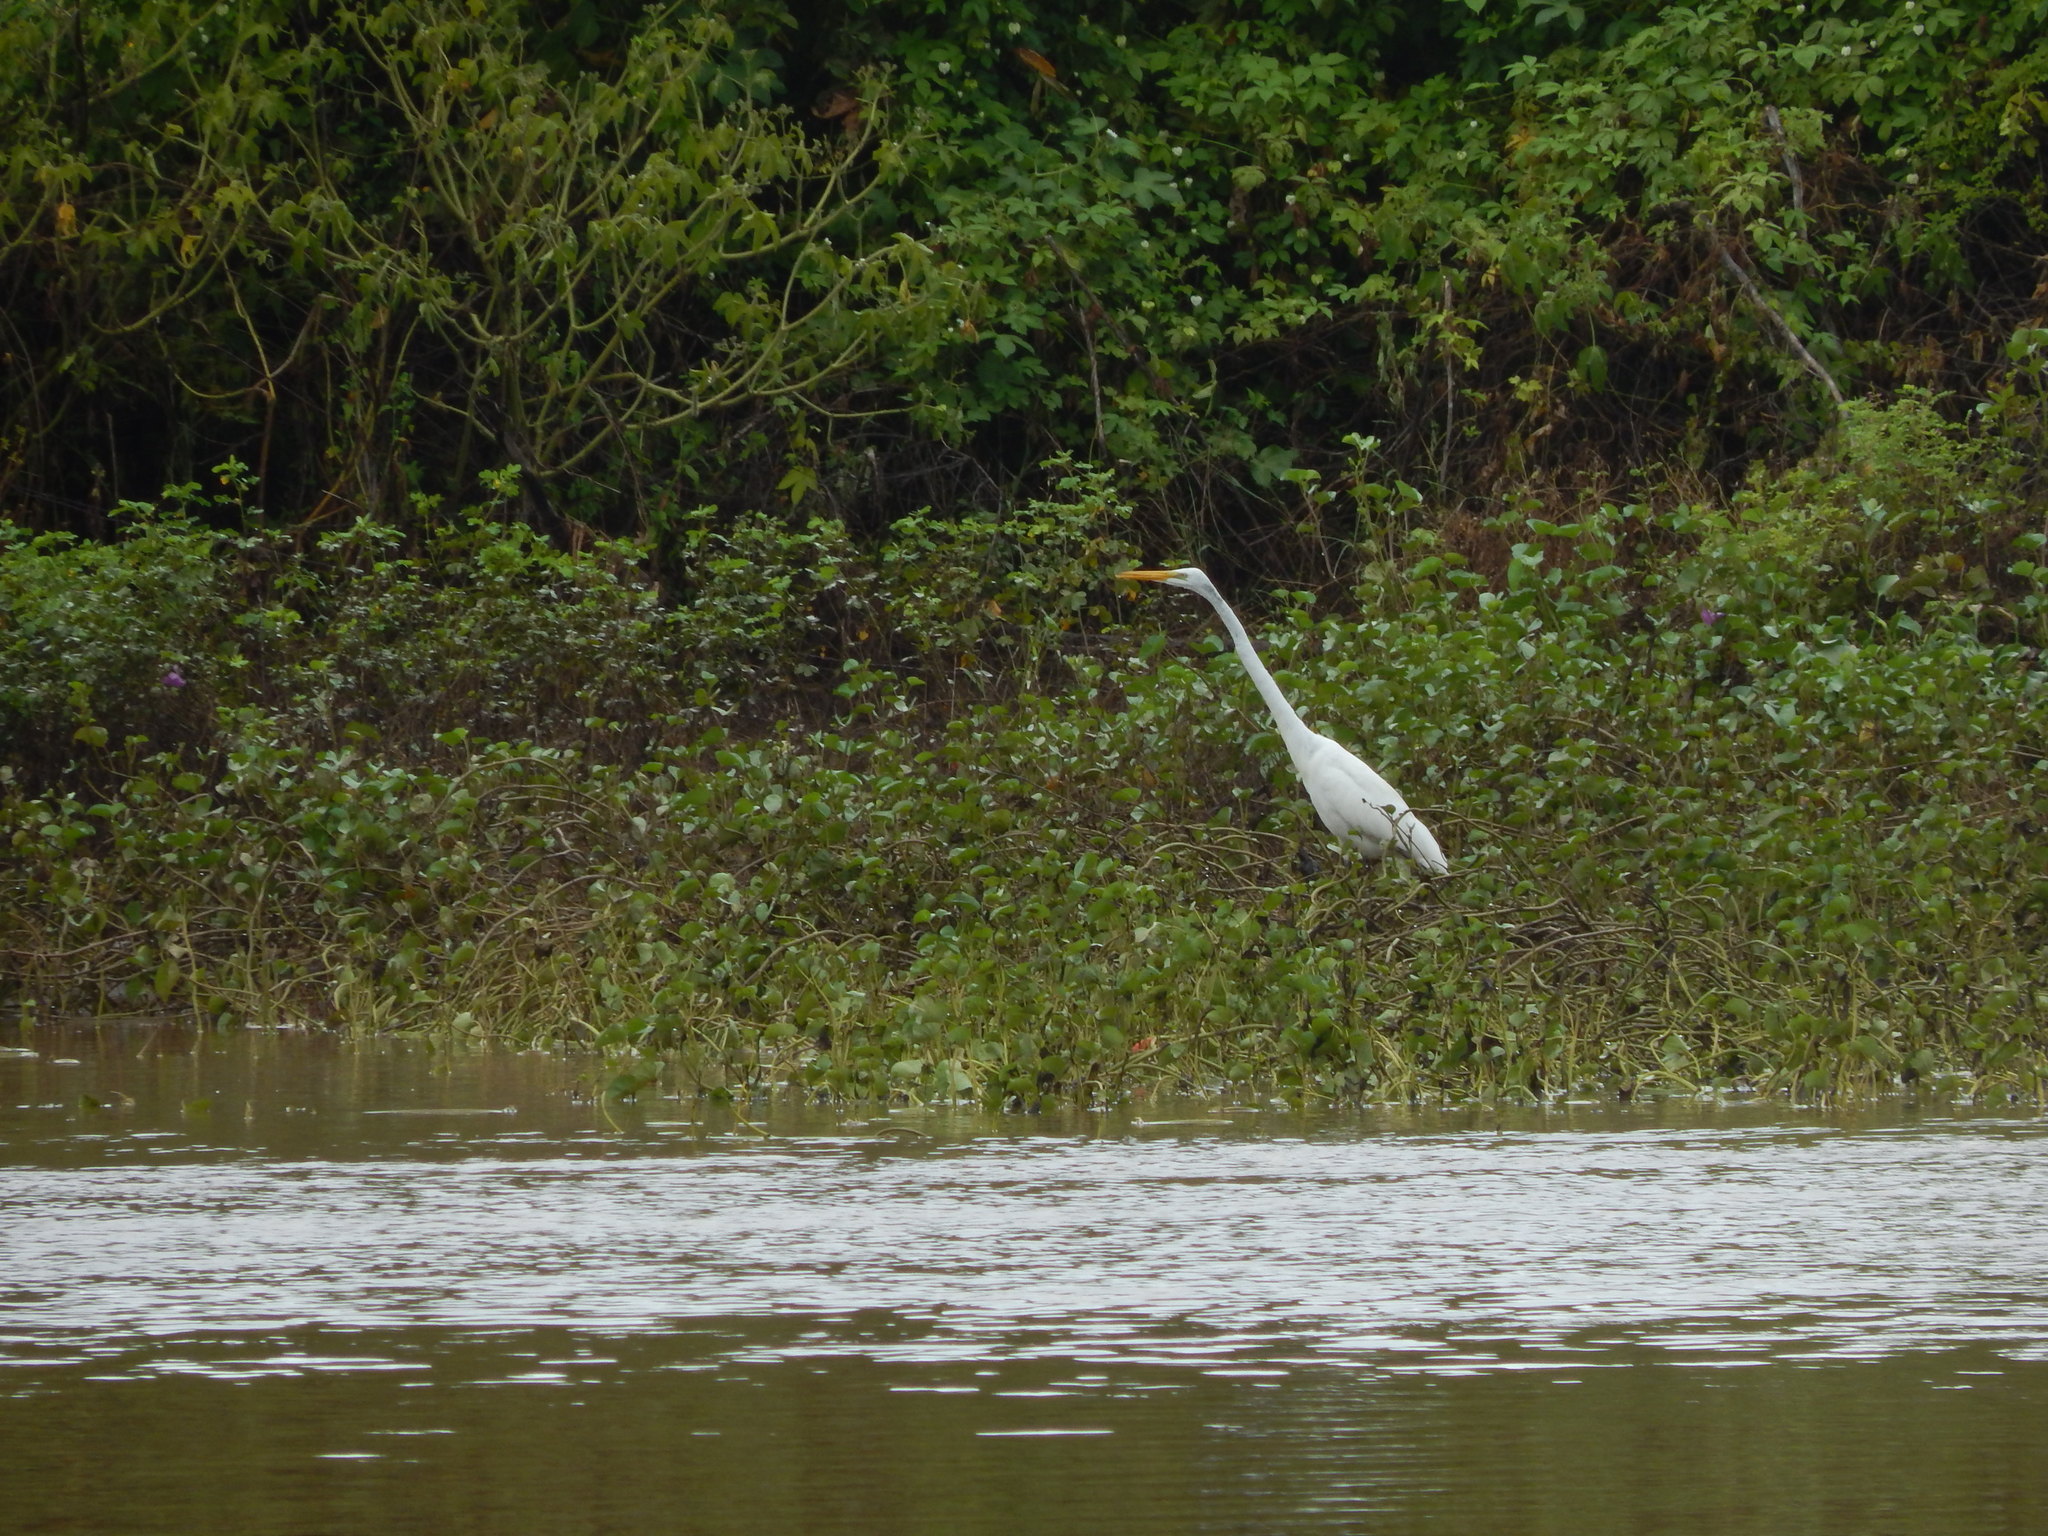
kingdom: Animalia
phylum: Chordata
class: Aves
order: Pelecaniformes
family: Ardeidae
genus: Ardea
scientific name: Ardea alba
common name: Great egret
